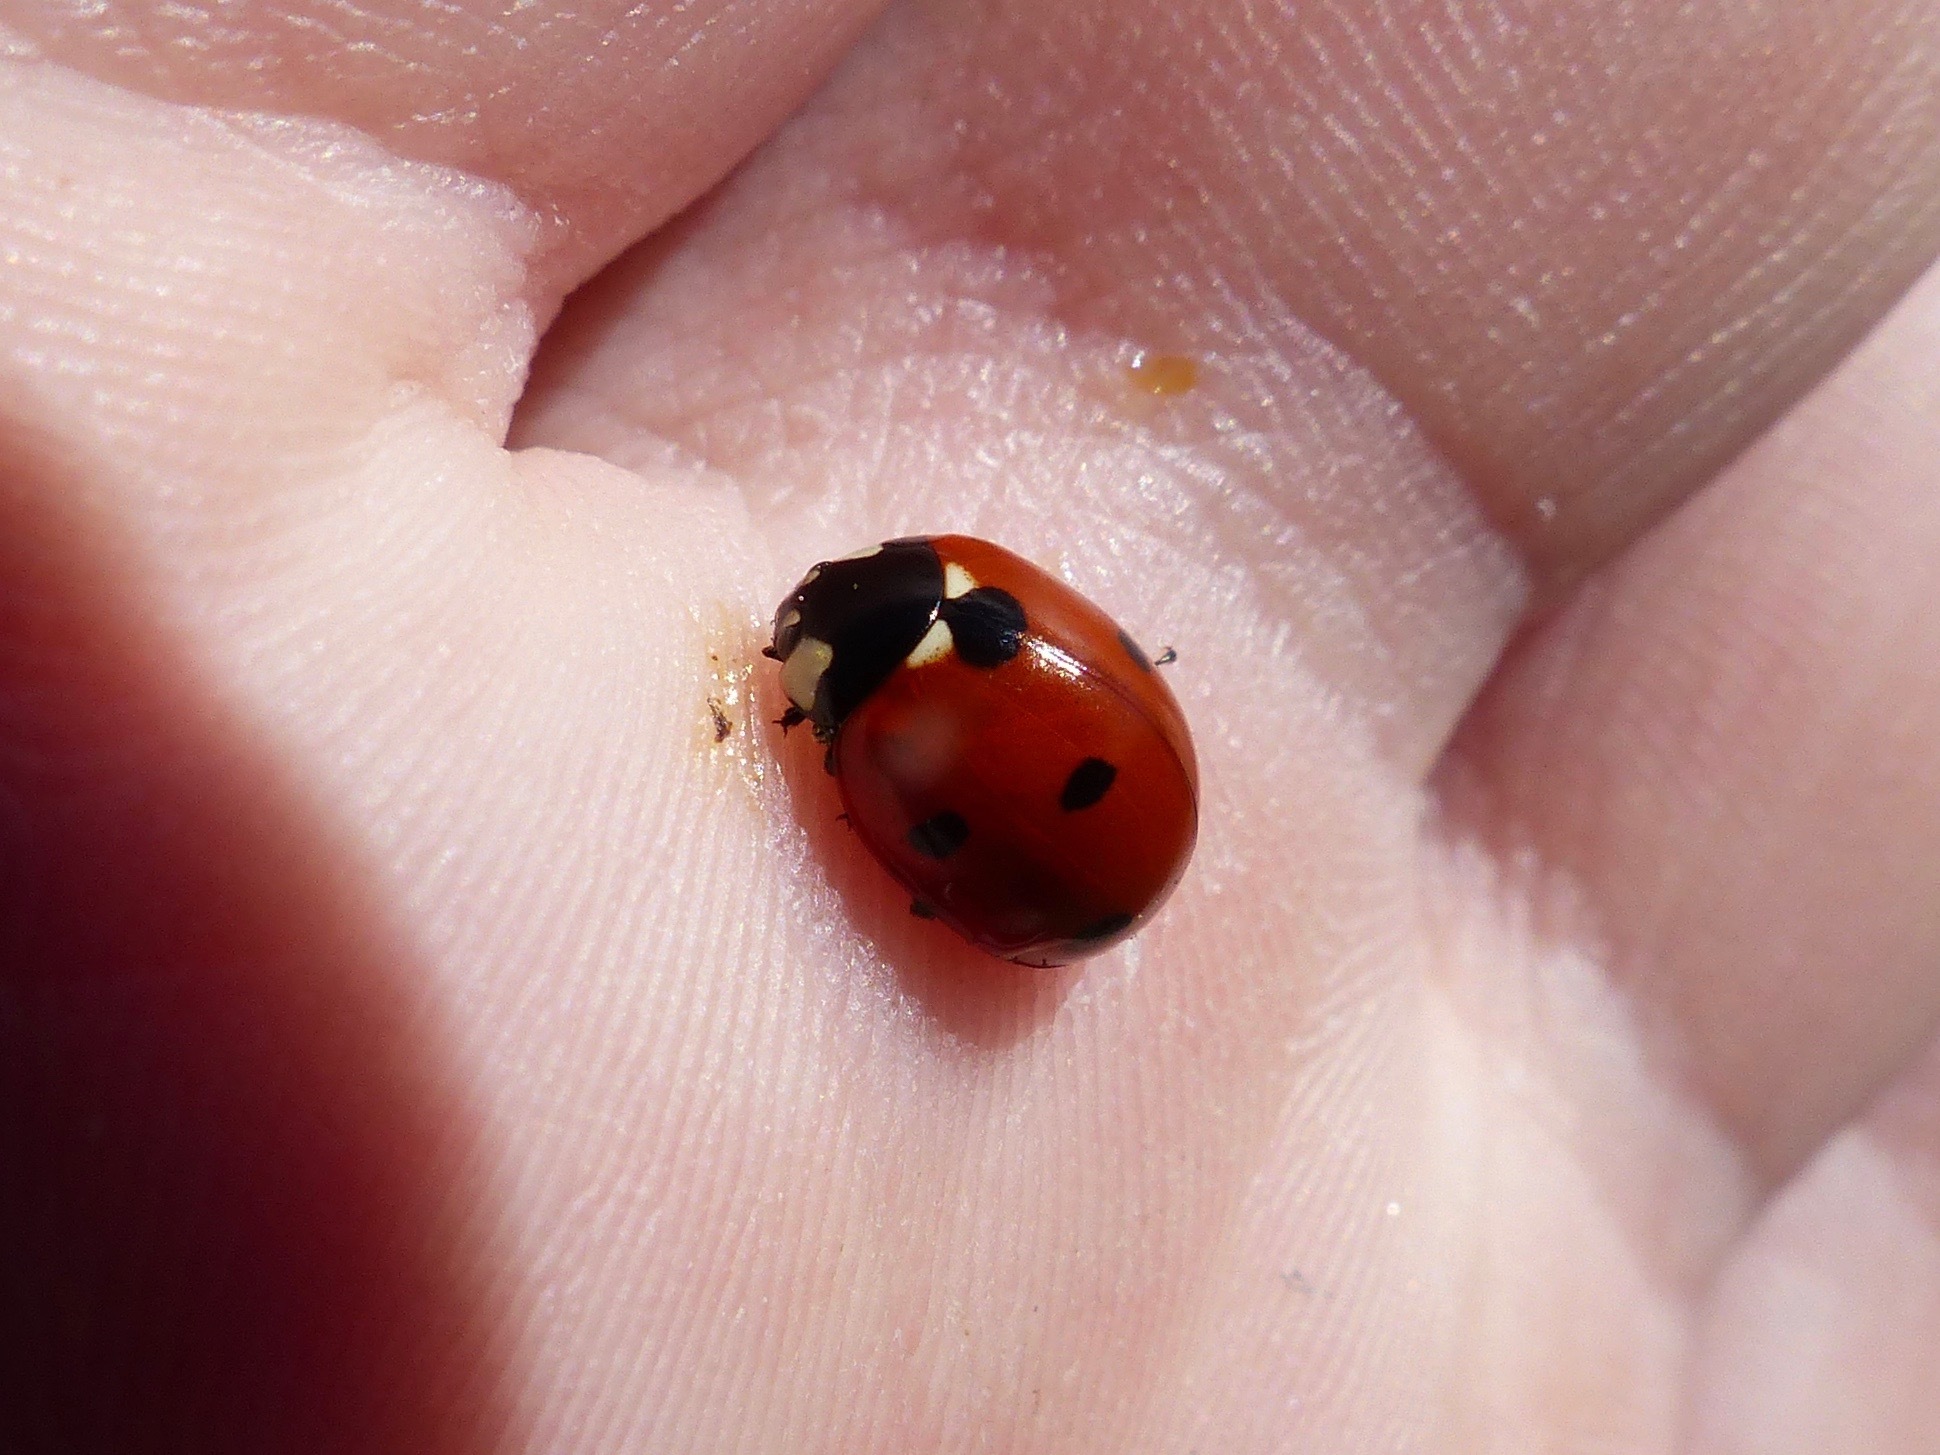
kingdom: Animalia
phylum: Arthropoda
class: Insecta
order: Coleoptera
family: Coccinellidae
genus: Coccinella
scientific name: Coccinella septempunctata
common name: Sevenspotted lady beetle
